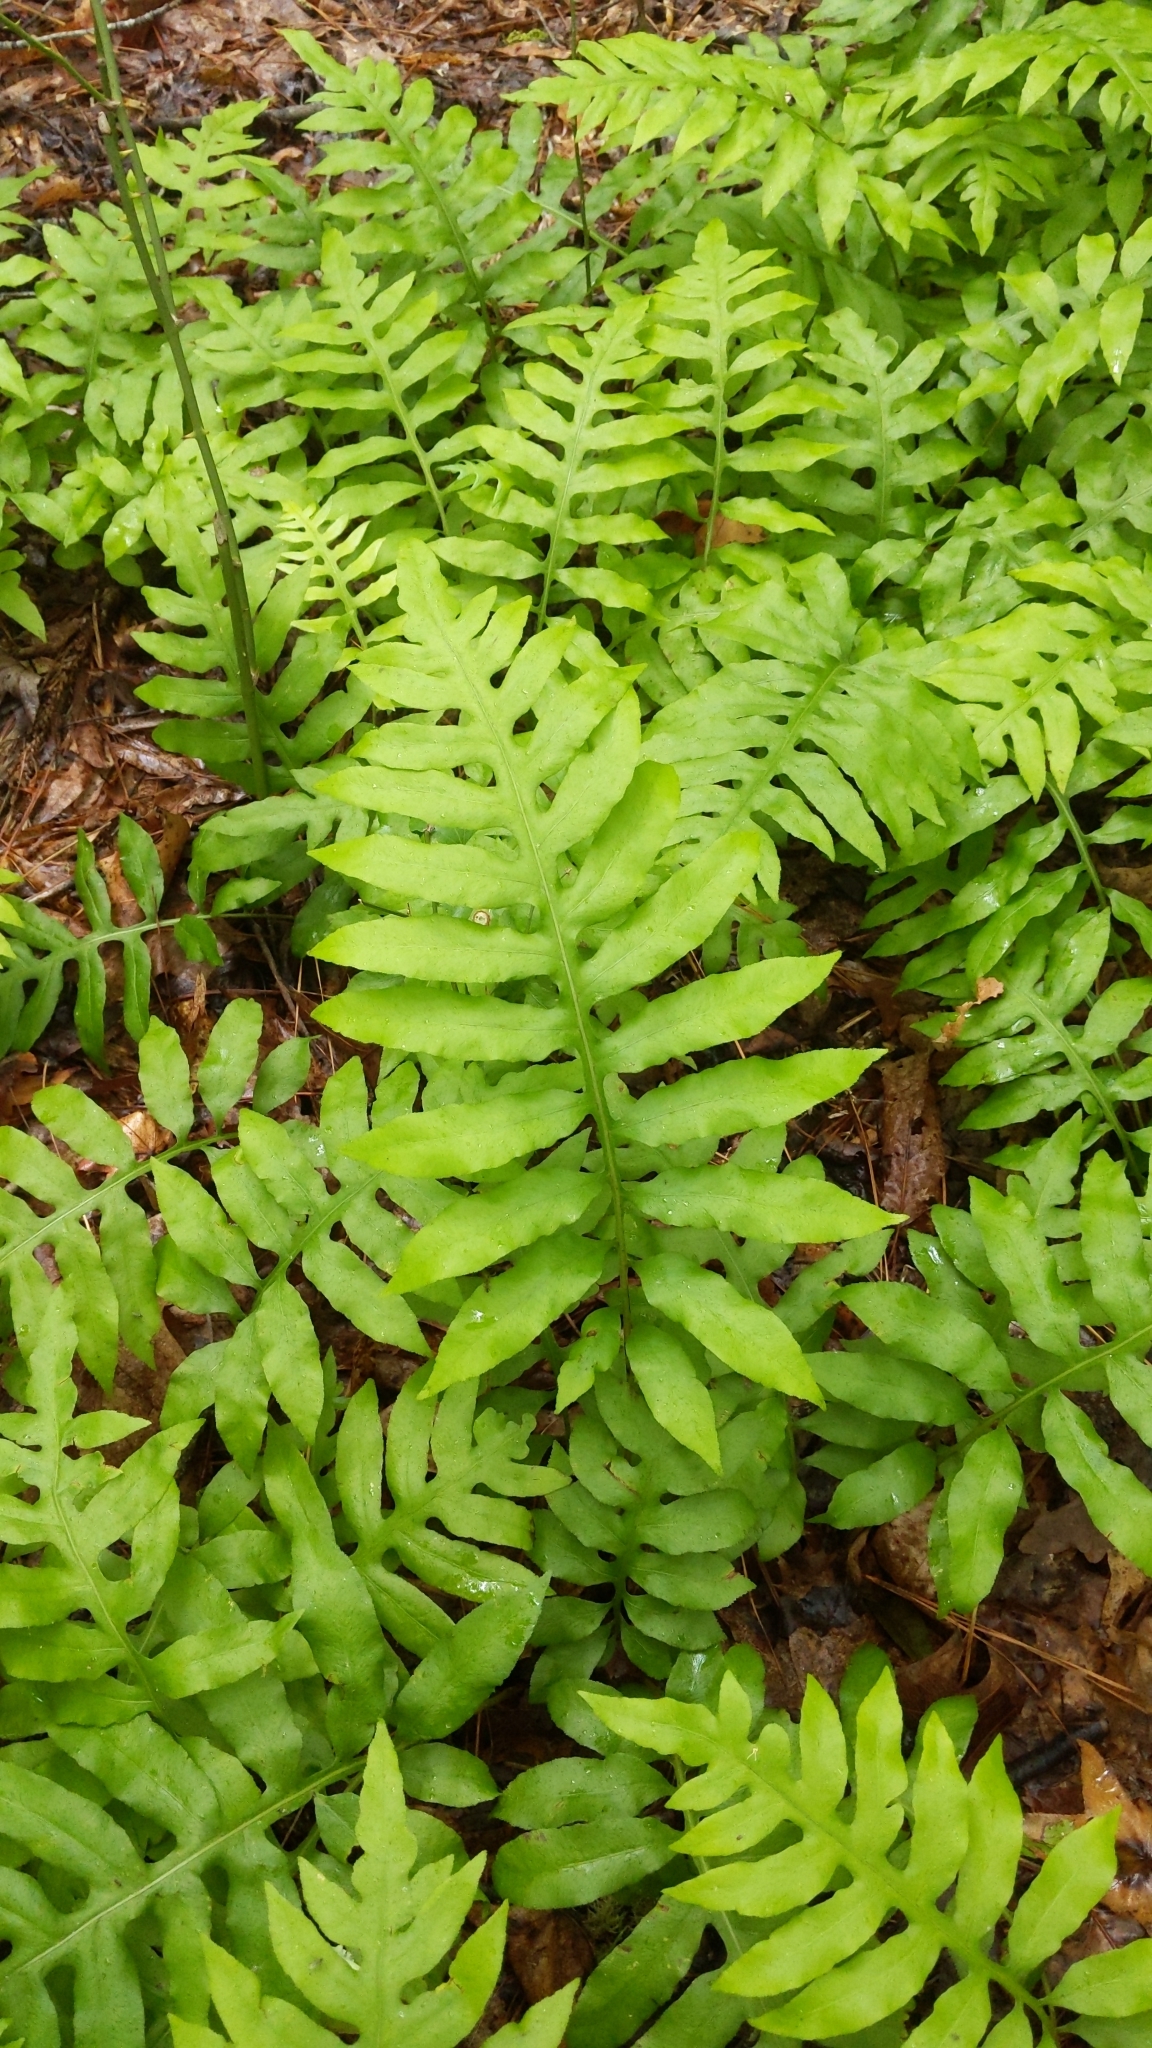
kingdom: Plantae
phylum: Tracheophyta
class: Polypodiopsida
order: Polypodiales
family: Blechnaceae
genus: Lorinseria
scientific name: Lorinseria areolata
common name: Dwarf chain fern
